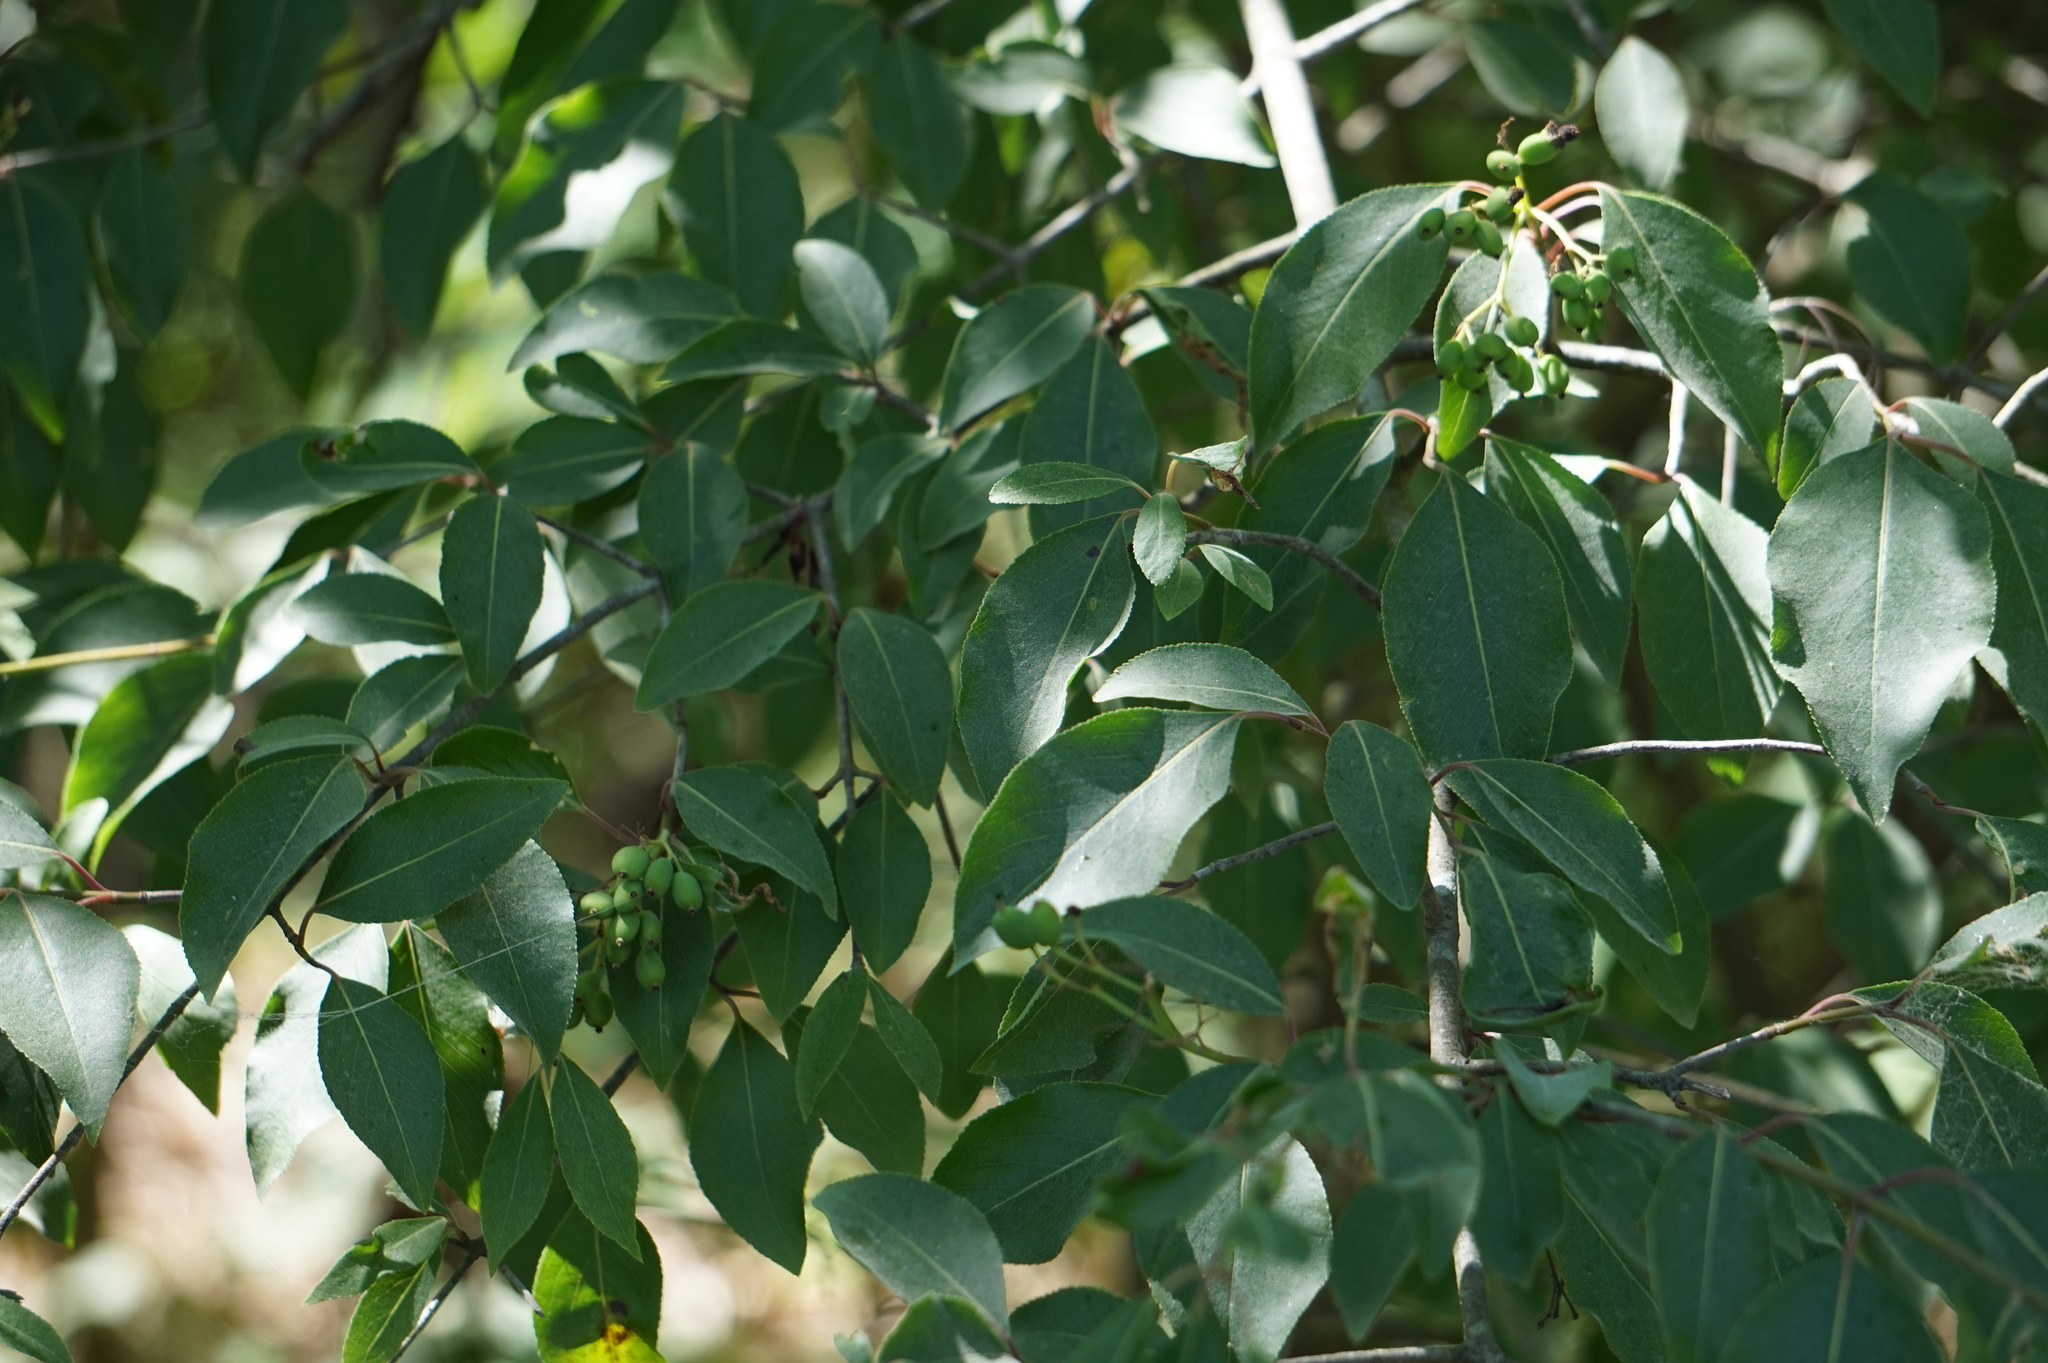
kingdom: Plantae
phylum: Tracheophyta
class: Magnoliopsida
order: Dipsacales
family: Viburnaceae
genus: Viburnum
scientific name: Viburnum prunifolium
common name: Black haw
